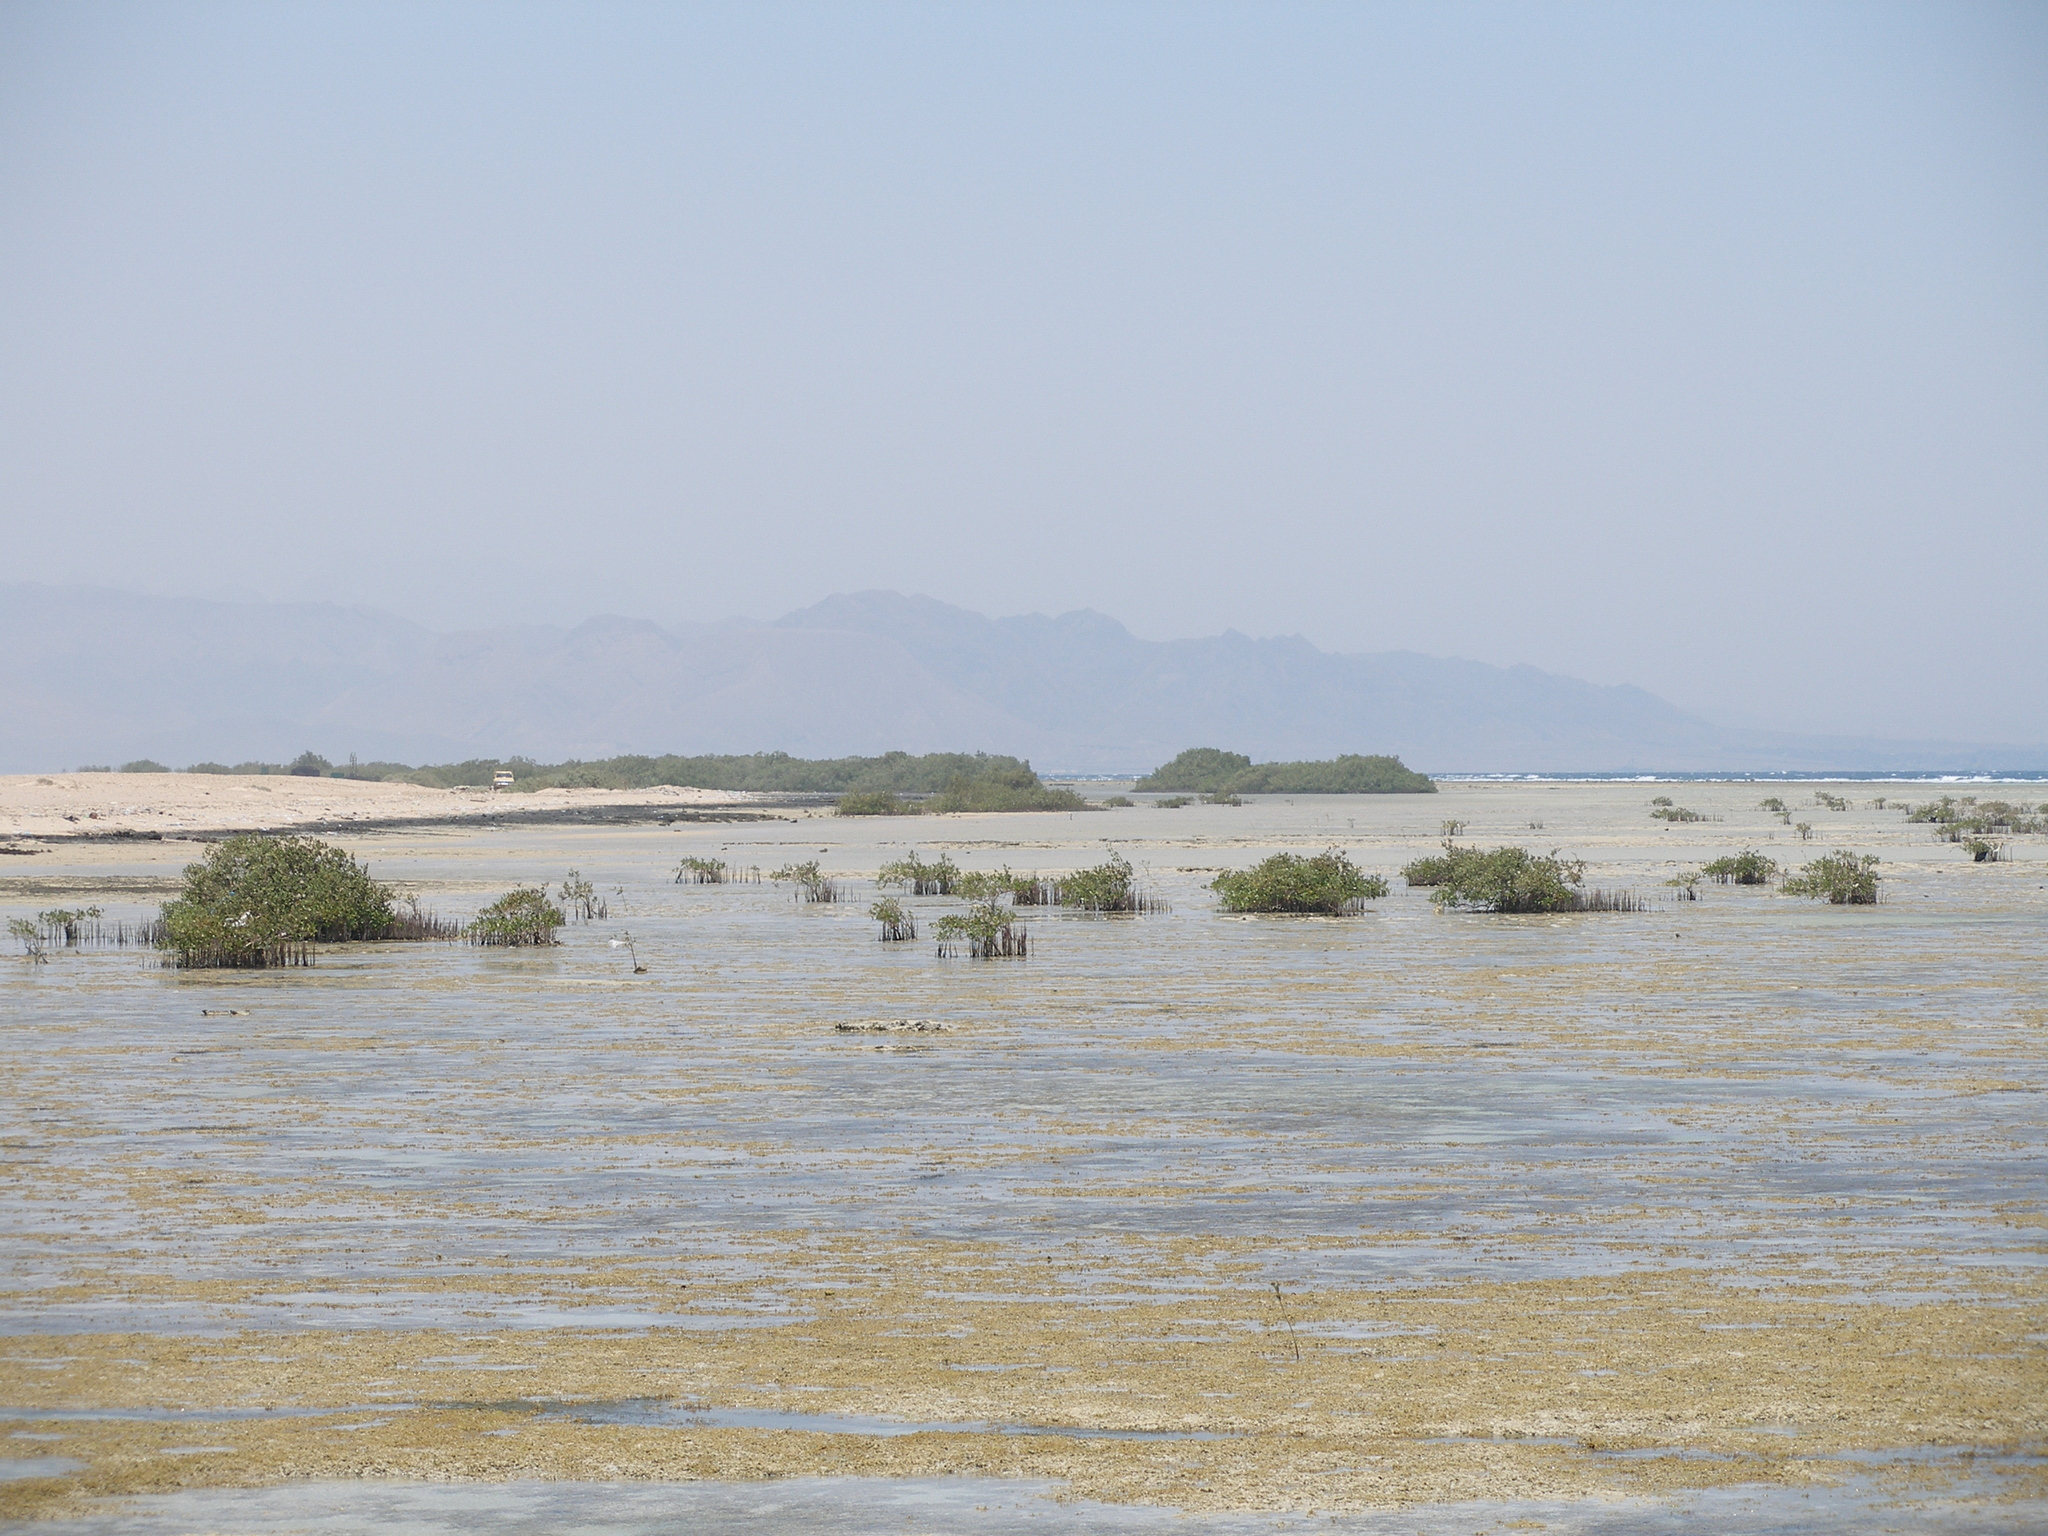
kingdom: Plantae
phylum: Tracheophyta
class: Magnoliopsida
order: Lamiales
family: Acanthaceae
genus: Avicennia
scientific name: Avicennia marina
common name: Gray mangrove
